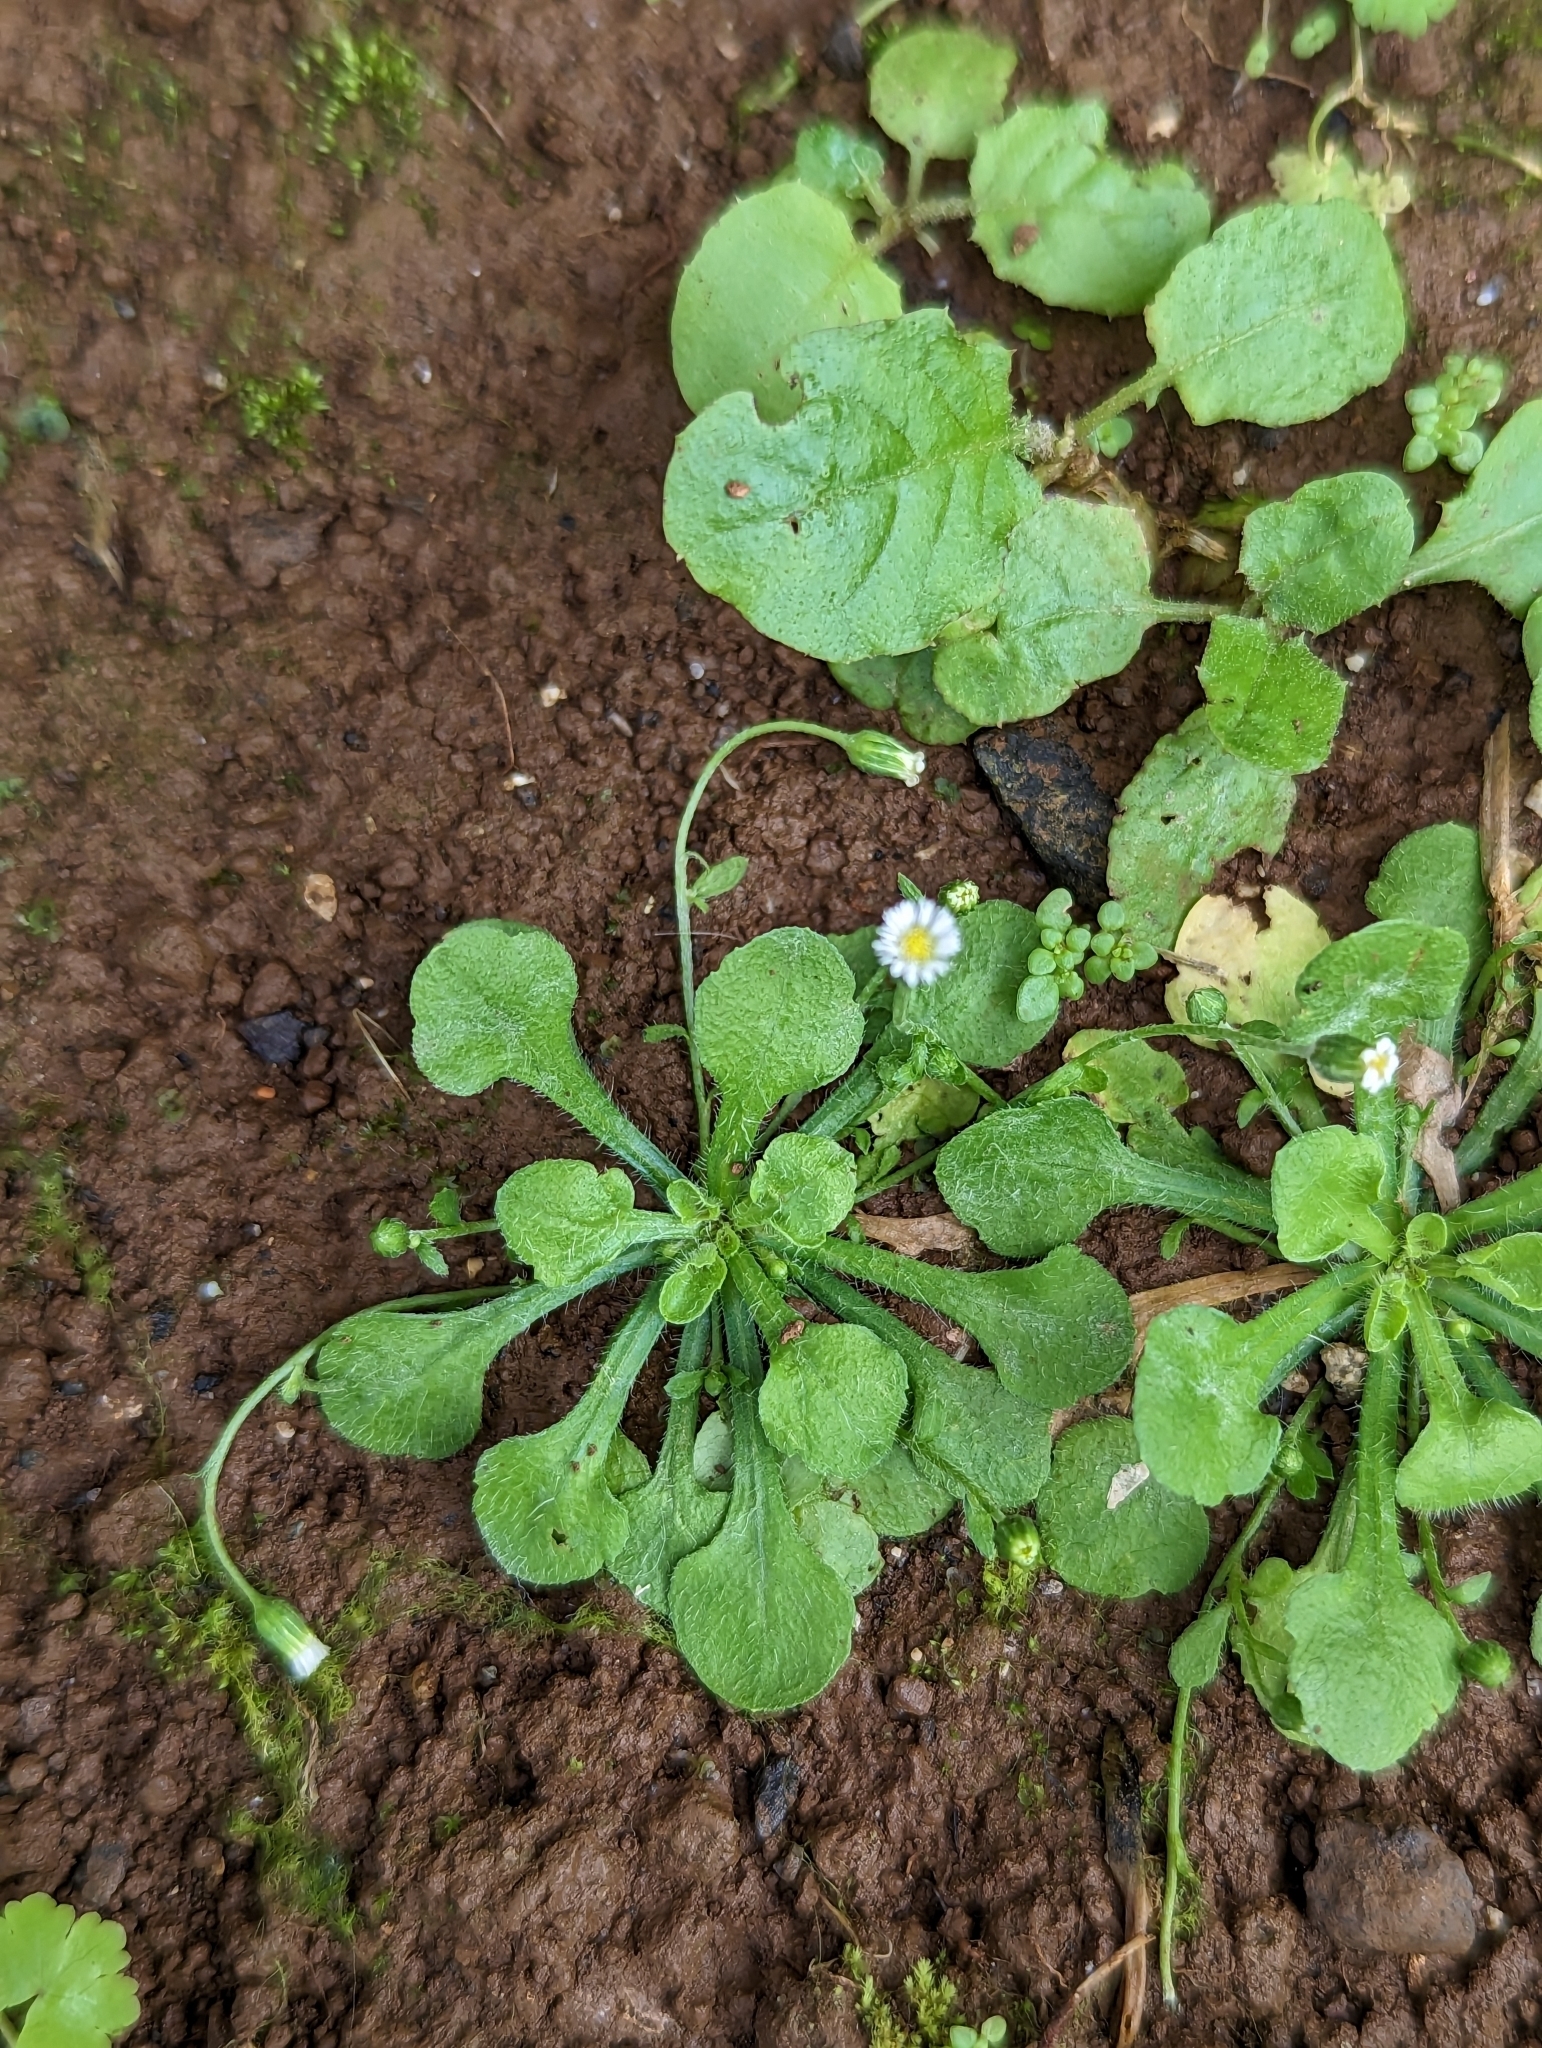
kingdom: Plantae
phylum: Tracheophyta
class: Magnoliopsida
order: Asterales
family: Asteraceae
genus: Erigeron
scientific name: Erigeron bellioides
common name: Bellorita
